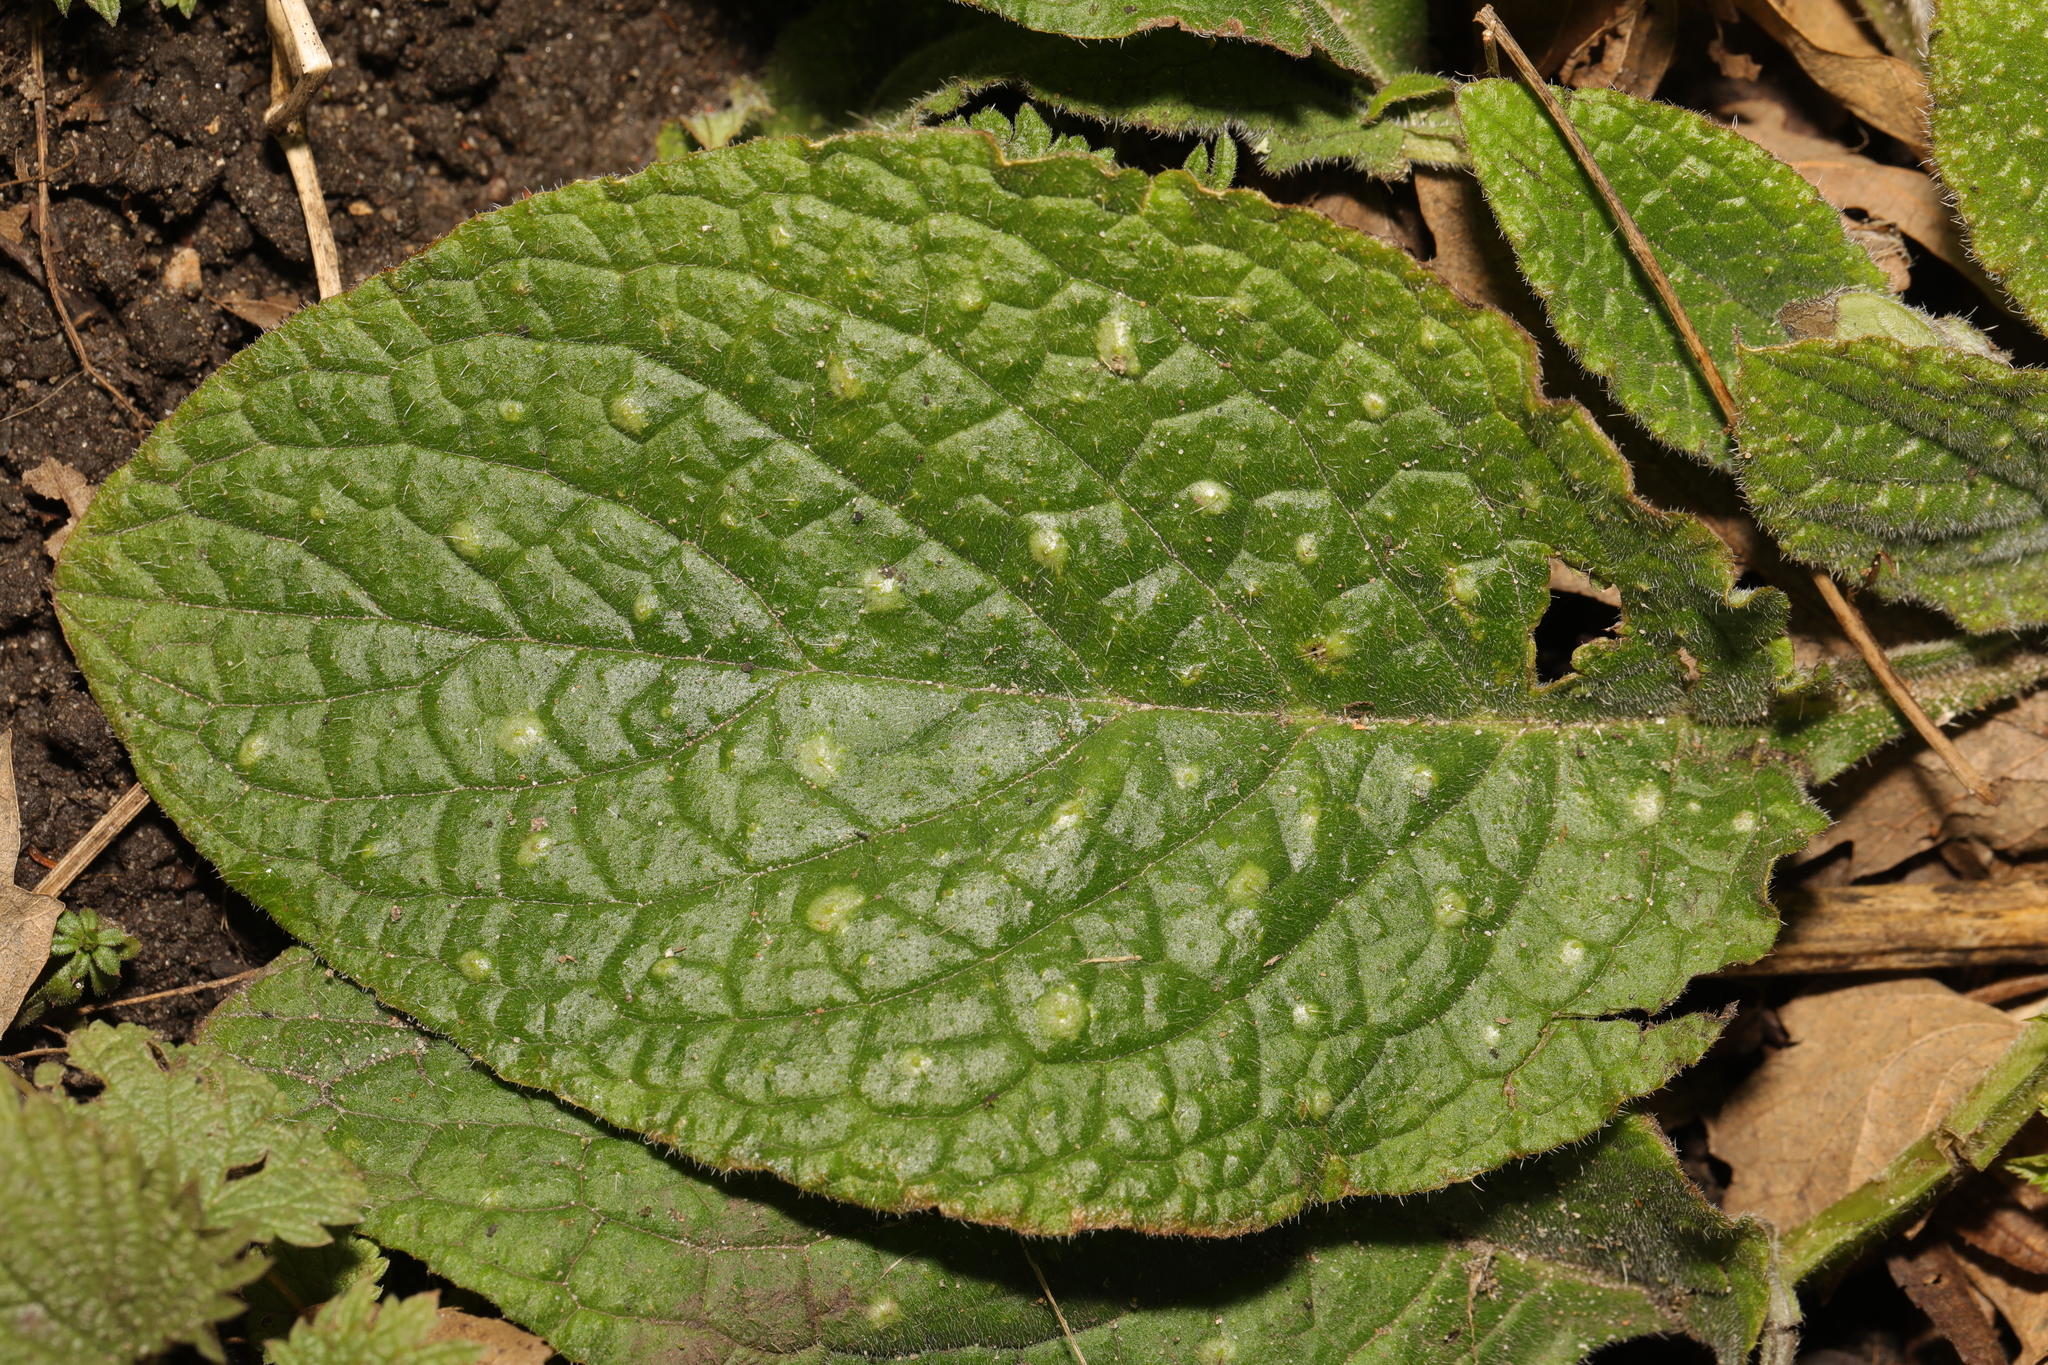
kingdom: Plantae
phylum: Tracheophyta
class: Magnoliopsida
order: Boraginales
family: Boraginaceae
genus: Pentaglottis
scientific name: Pentaglottis sempervirens
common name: Green alkanet
